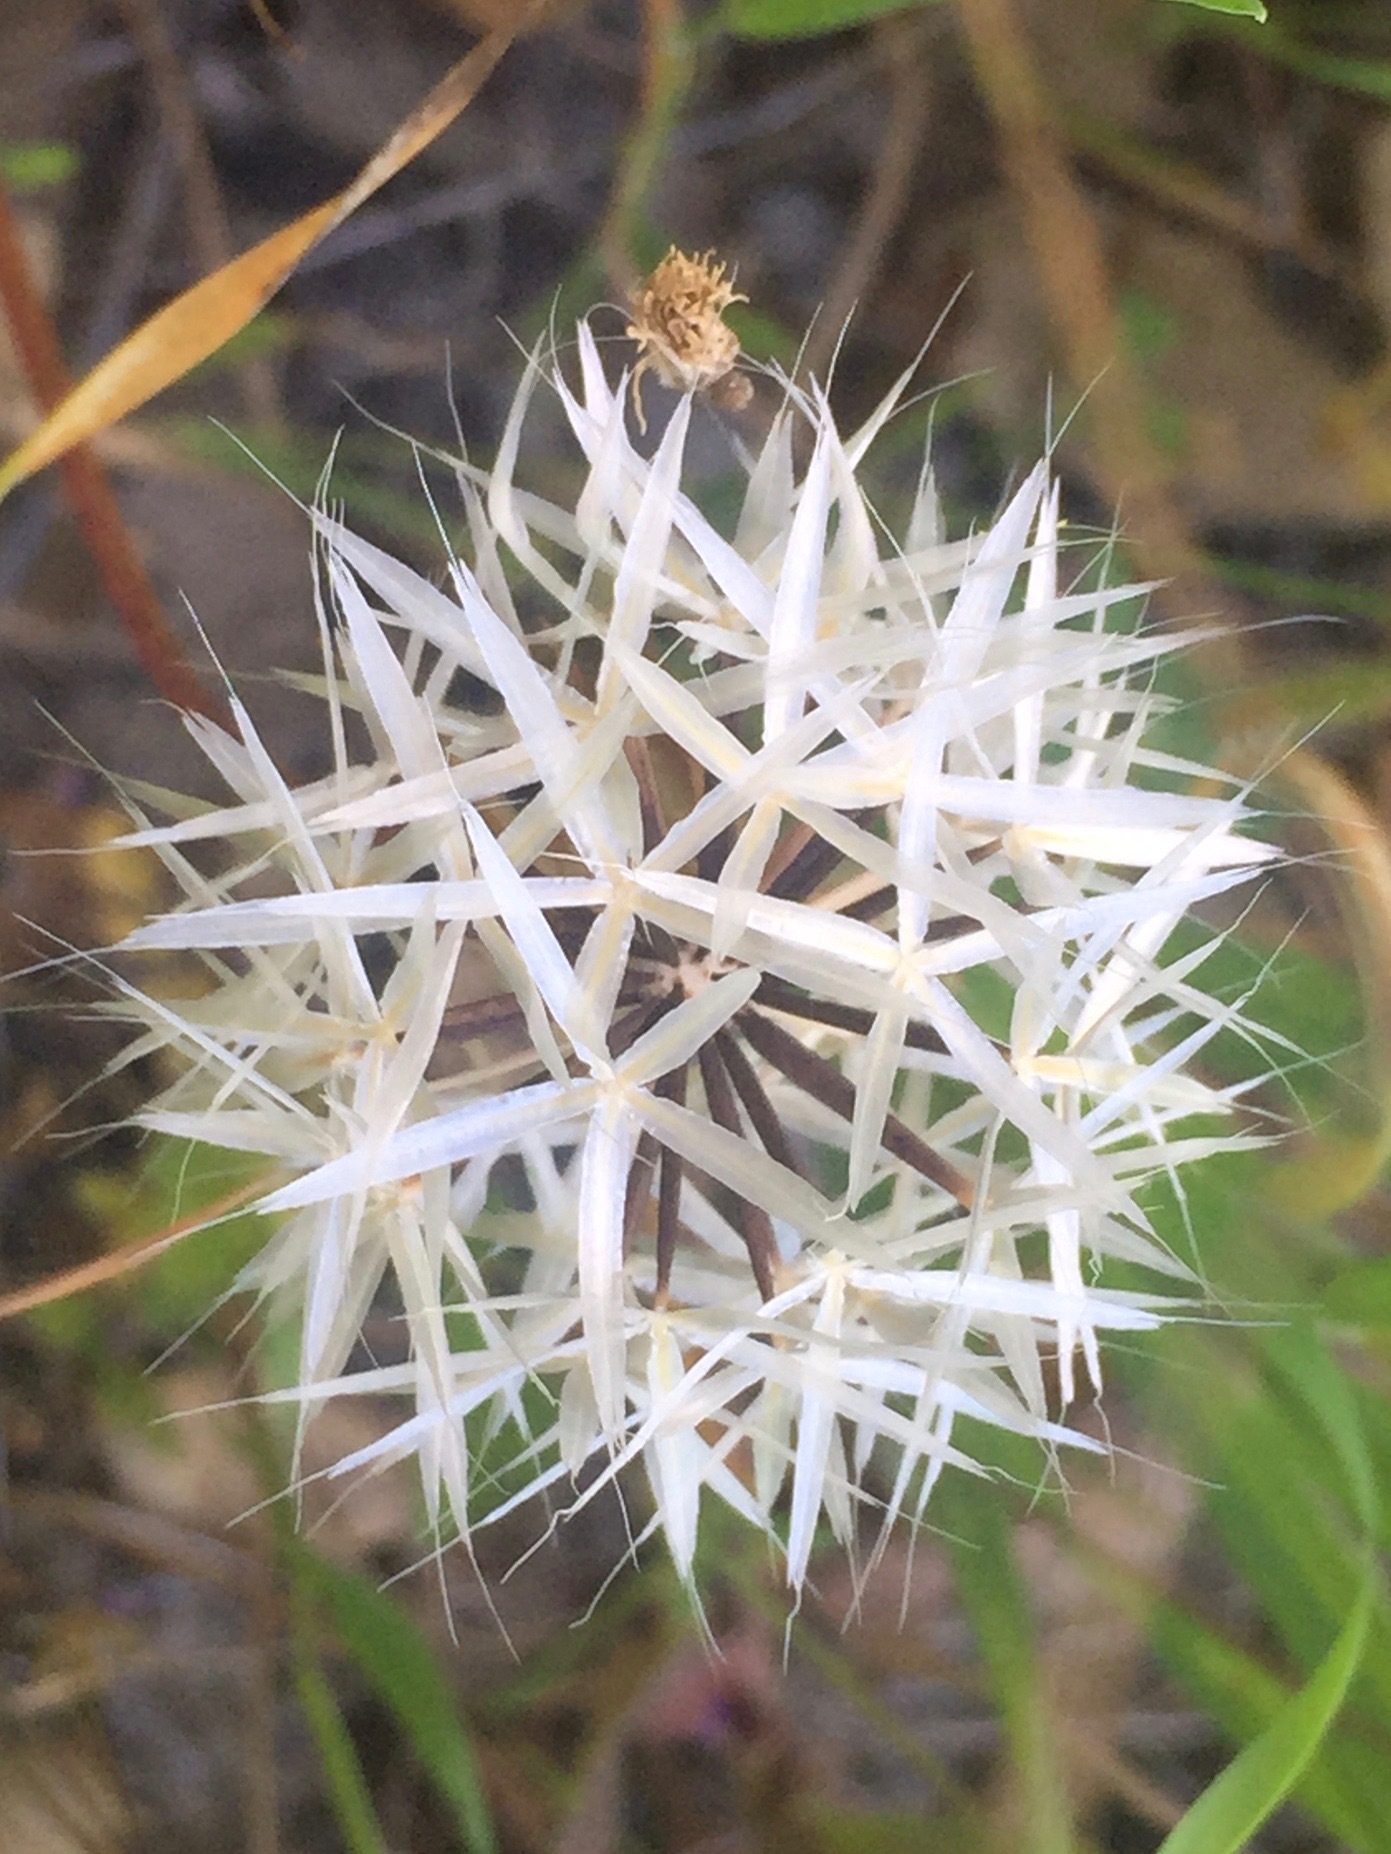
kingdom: Plantae
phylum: Tracheophyta
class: Magnoliopsida
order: Asterales
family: Asteraceae
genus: Microseris
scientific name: Microseris lindleyi
